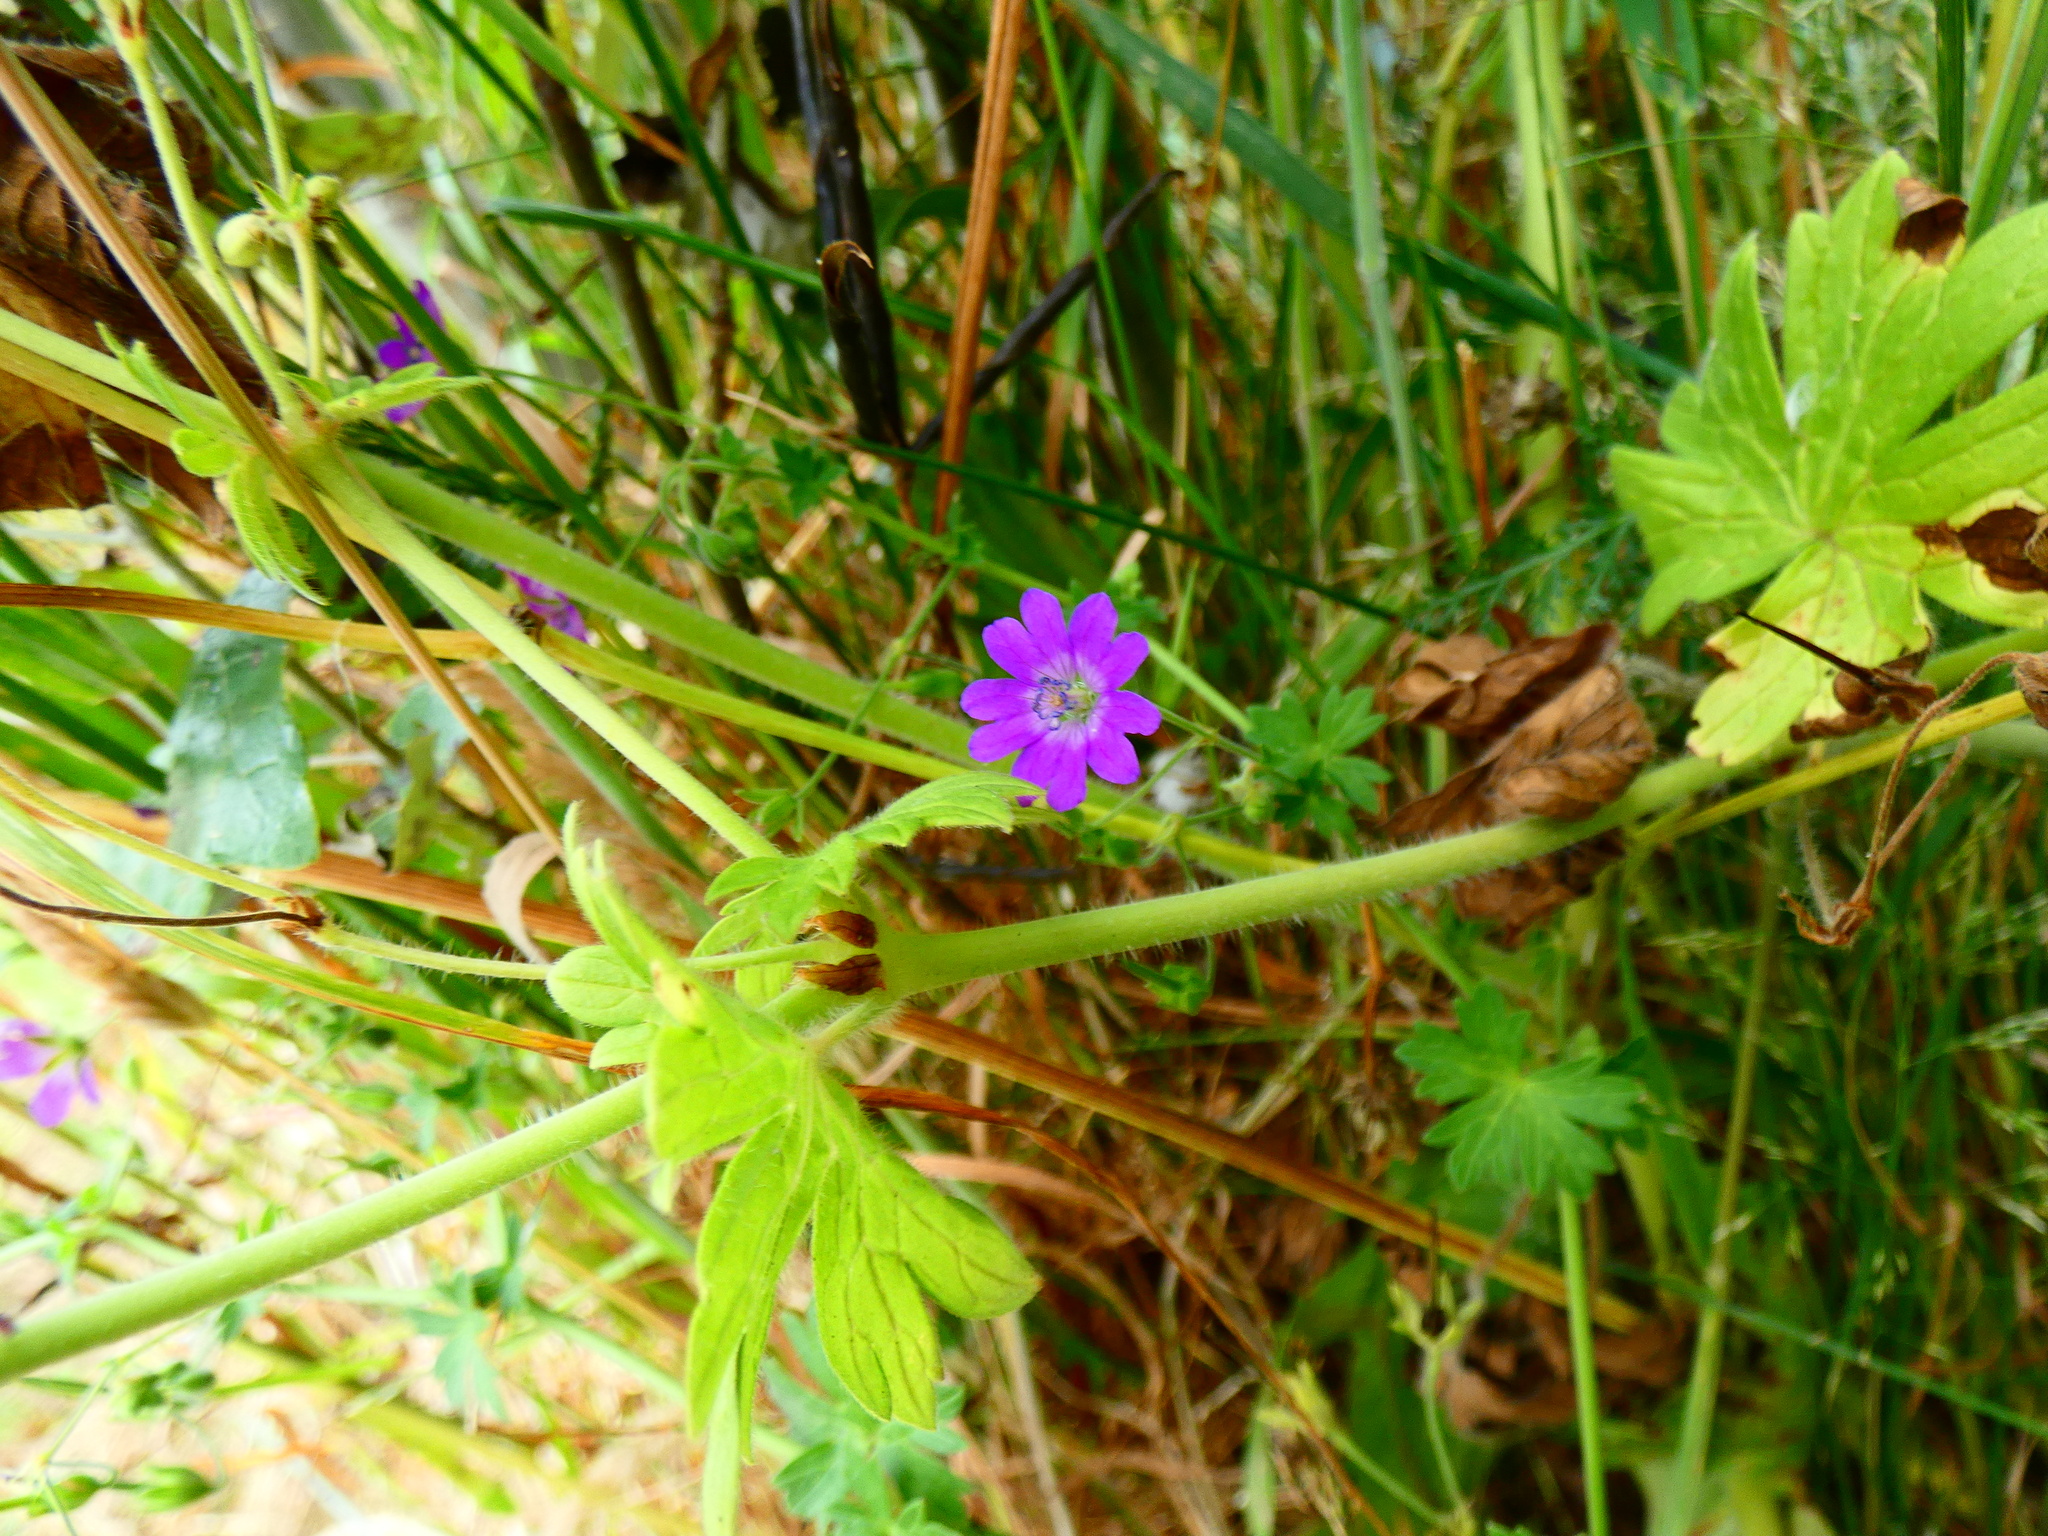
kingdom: Plantae
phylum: Tracheophyta
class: Magnoliopsida
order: Geraniales
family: Geraniaceae
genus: Geranium
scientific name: Geranium pyrenaicum
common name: Hedgerow crane's-bill
